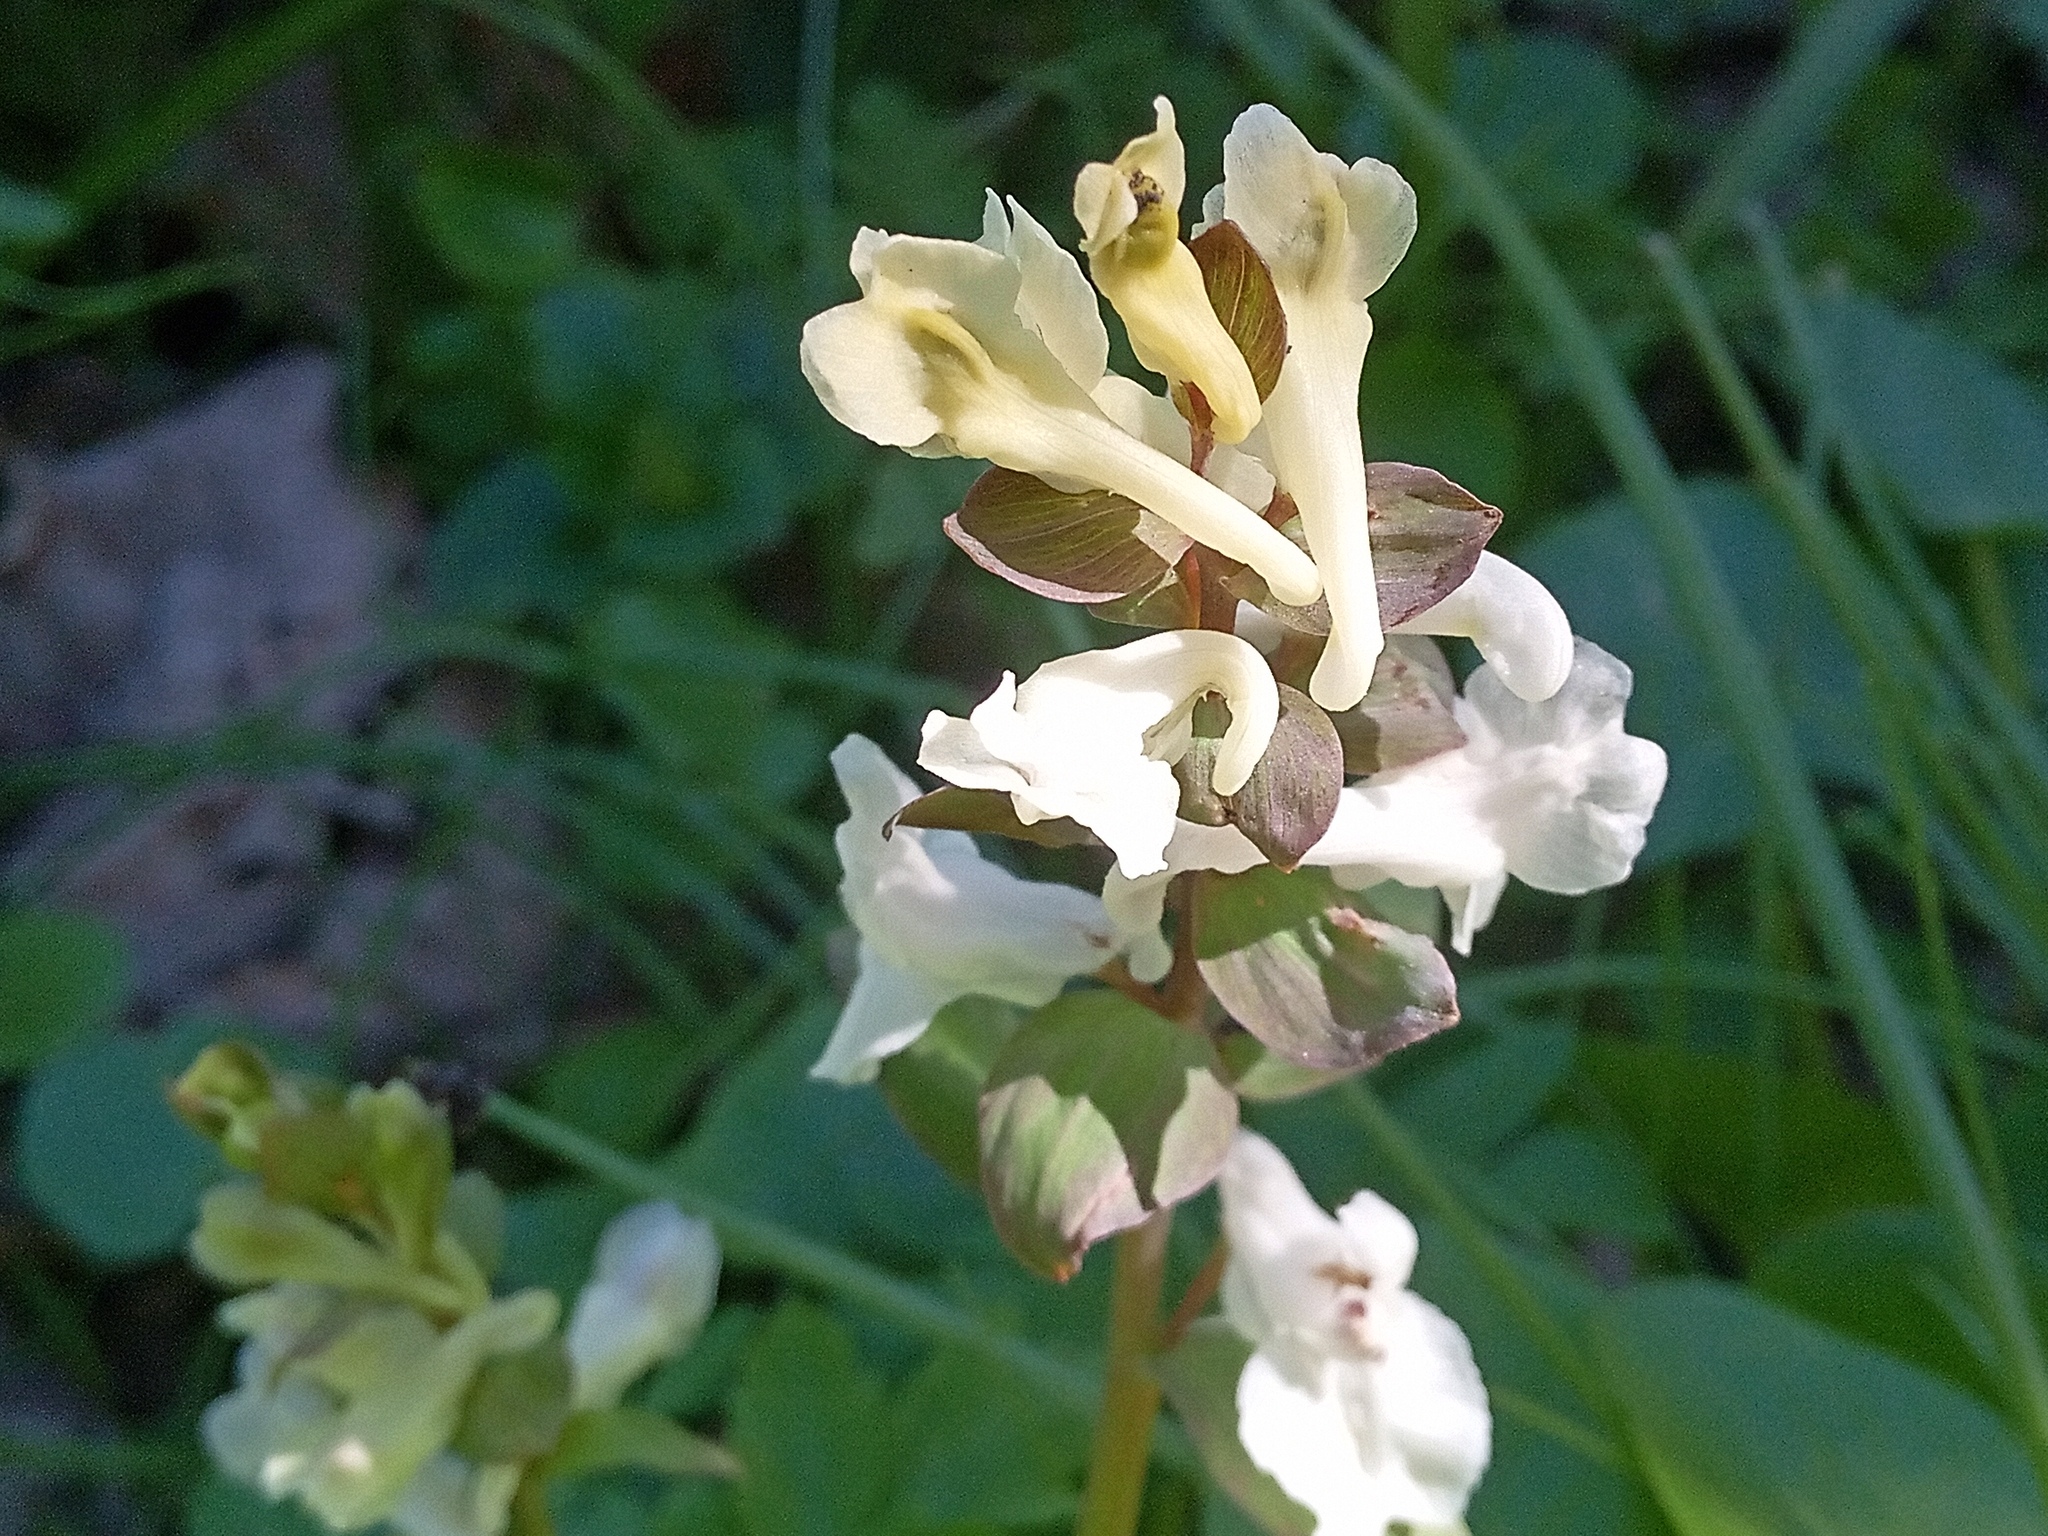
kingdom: Plantae
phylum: Tracheophyta
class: Magnoliopsida
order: Ranunculales
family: Papaveraceae
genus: Corydalis
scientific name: Corydalis cava
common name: Hollowroot
